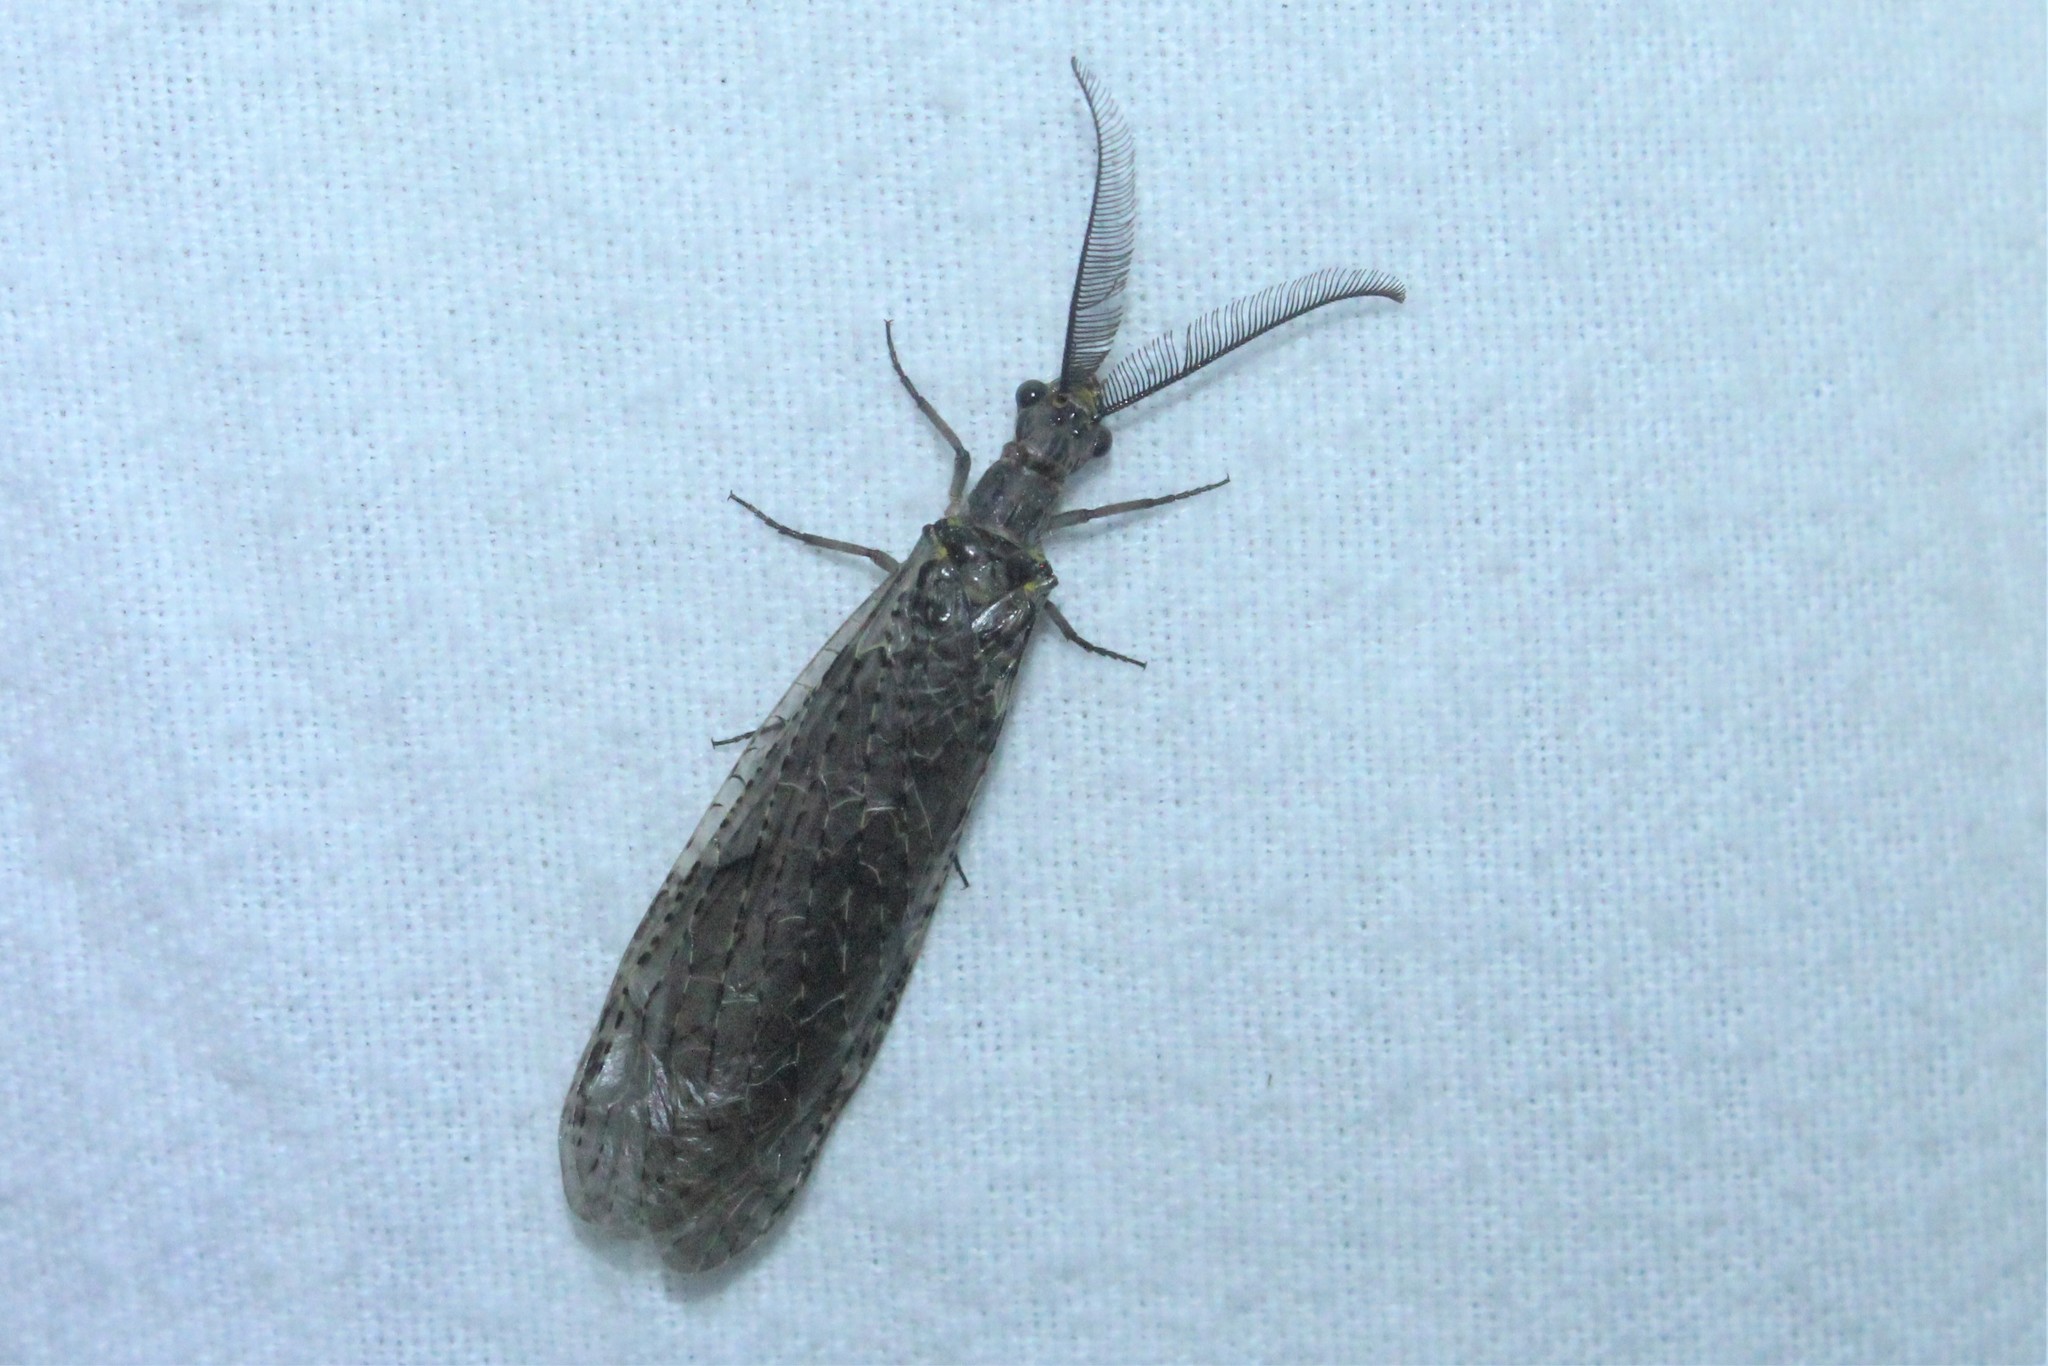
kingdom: Animalia
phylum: Arthropoda
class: Insecta
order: Megaloptera
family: Corydalidae
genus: Chauliodes
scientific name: Chauliodes rastricornis
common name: Spring fishfly
